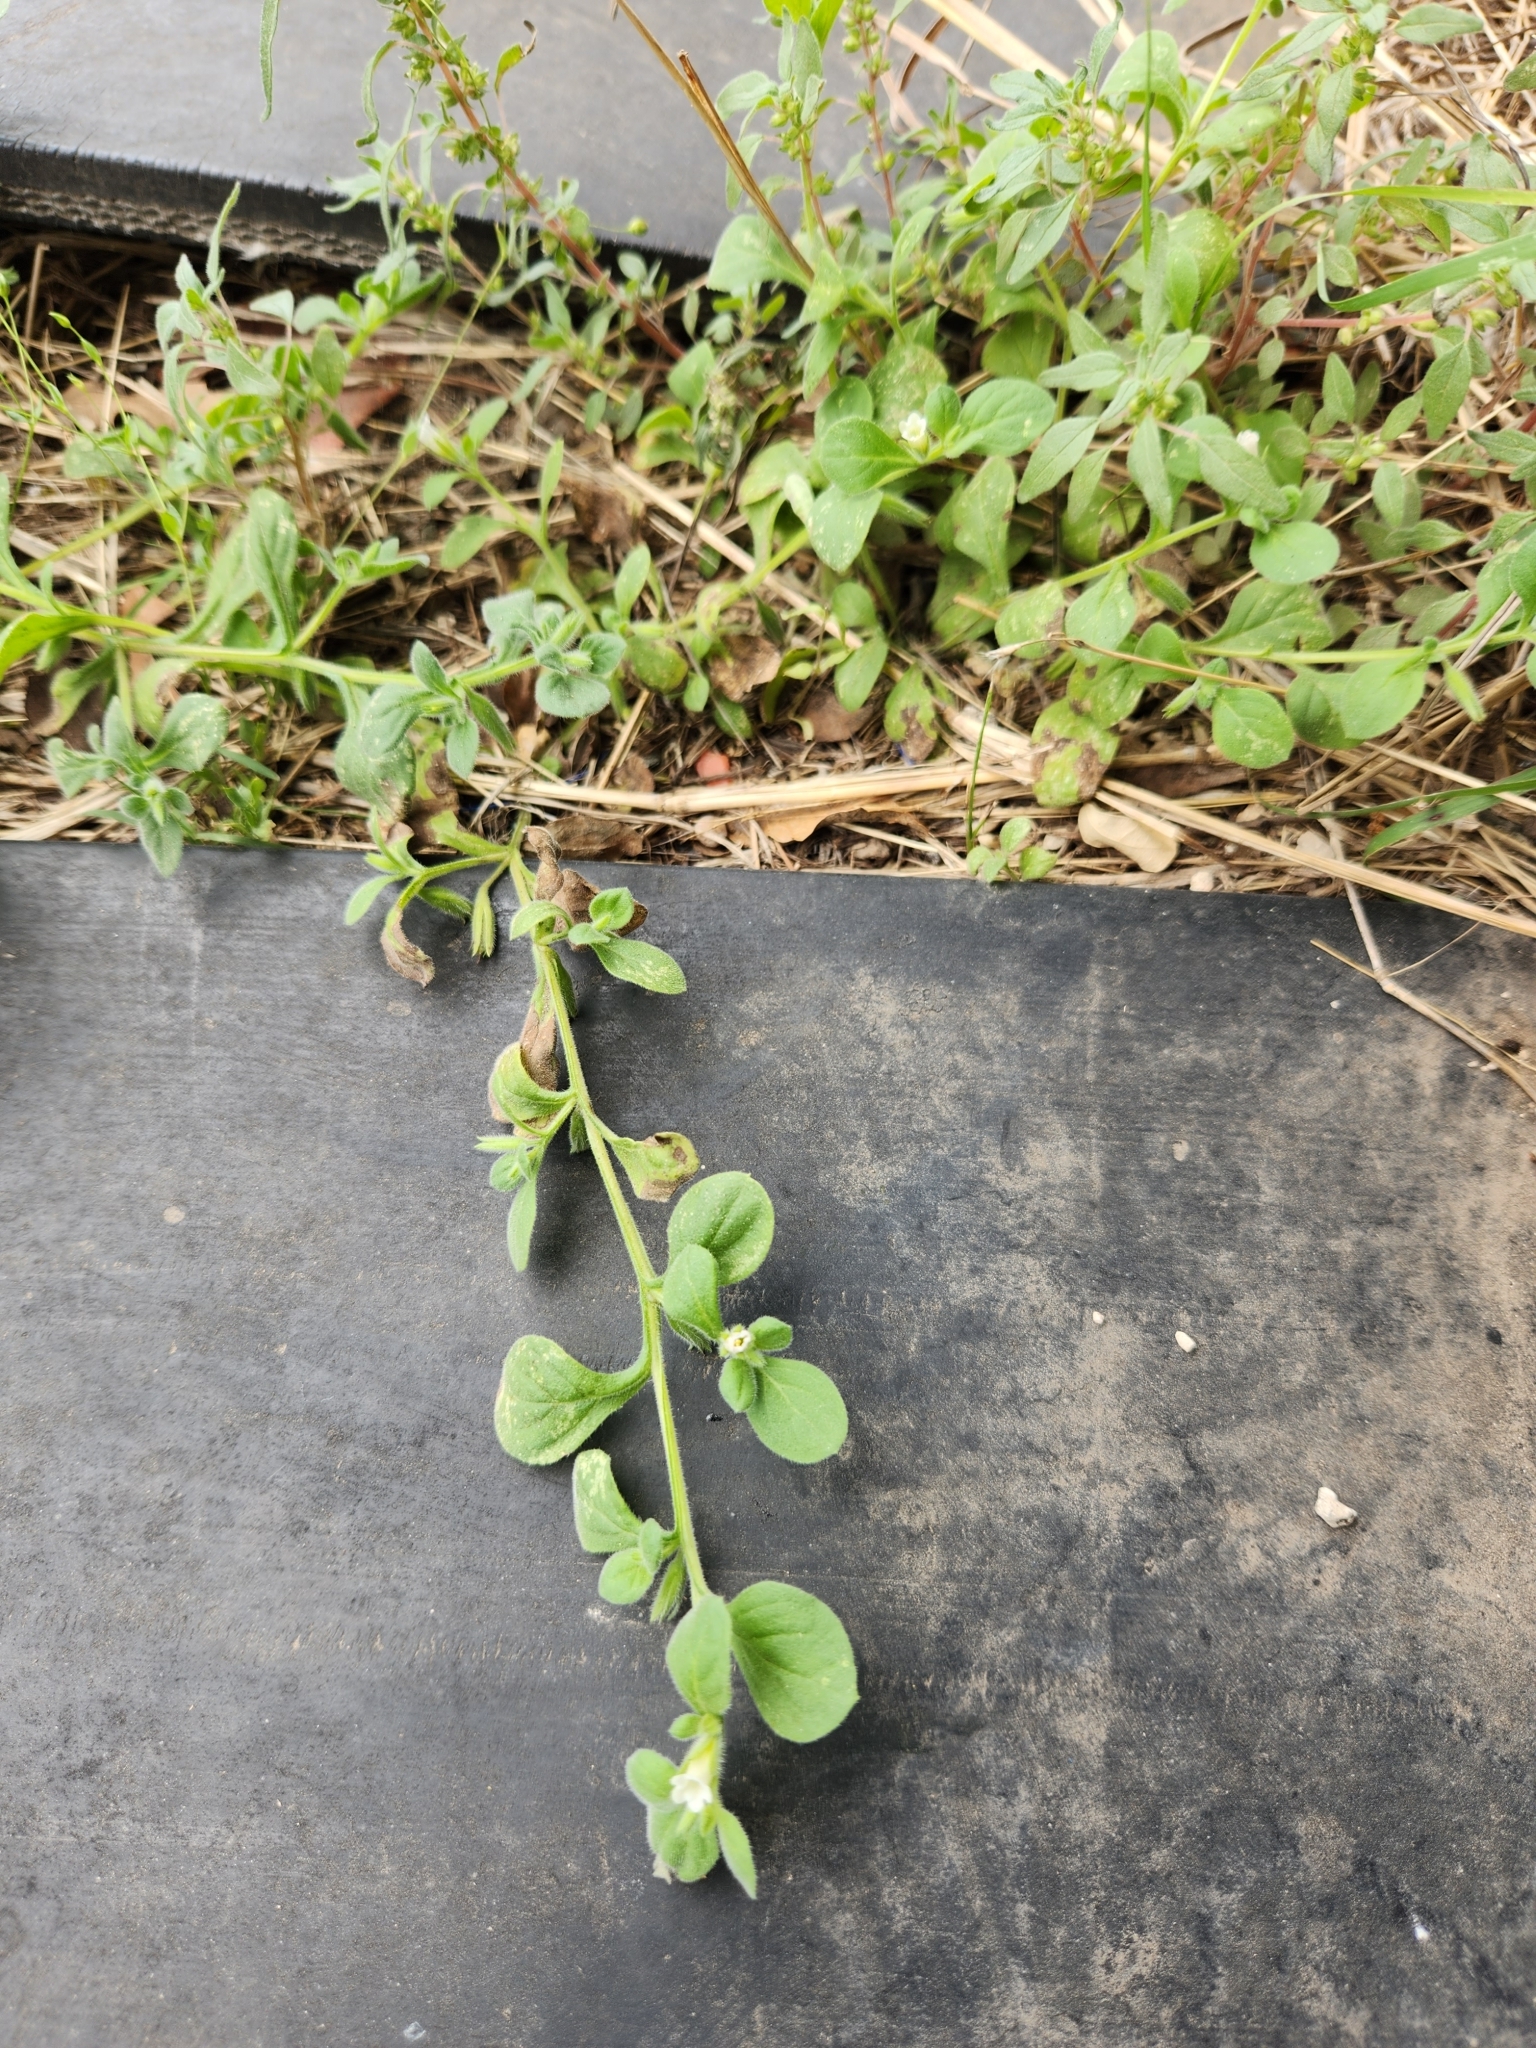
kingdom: Plantae
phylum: Tracheophyta
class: Magnoliopsida
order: Boraginales
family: Namaceae
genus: Nama
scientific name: Nama jamaicensis
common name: Jamaicanweed
